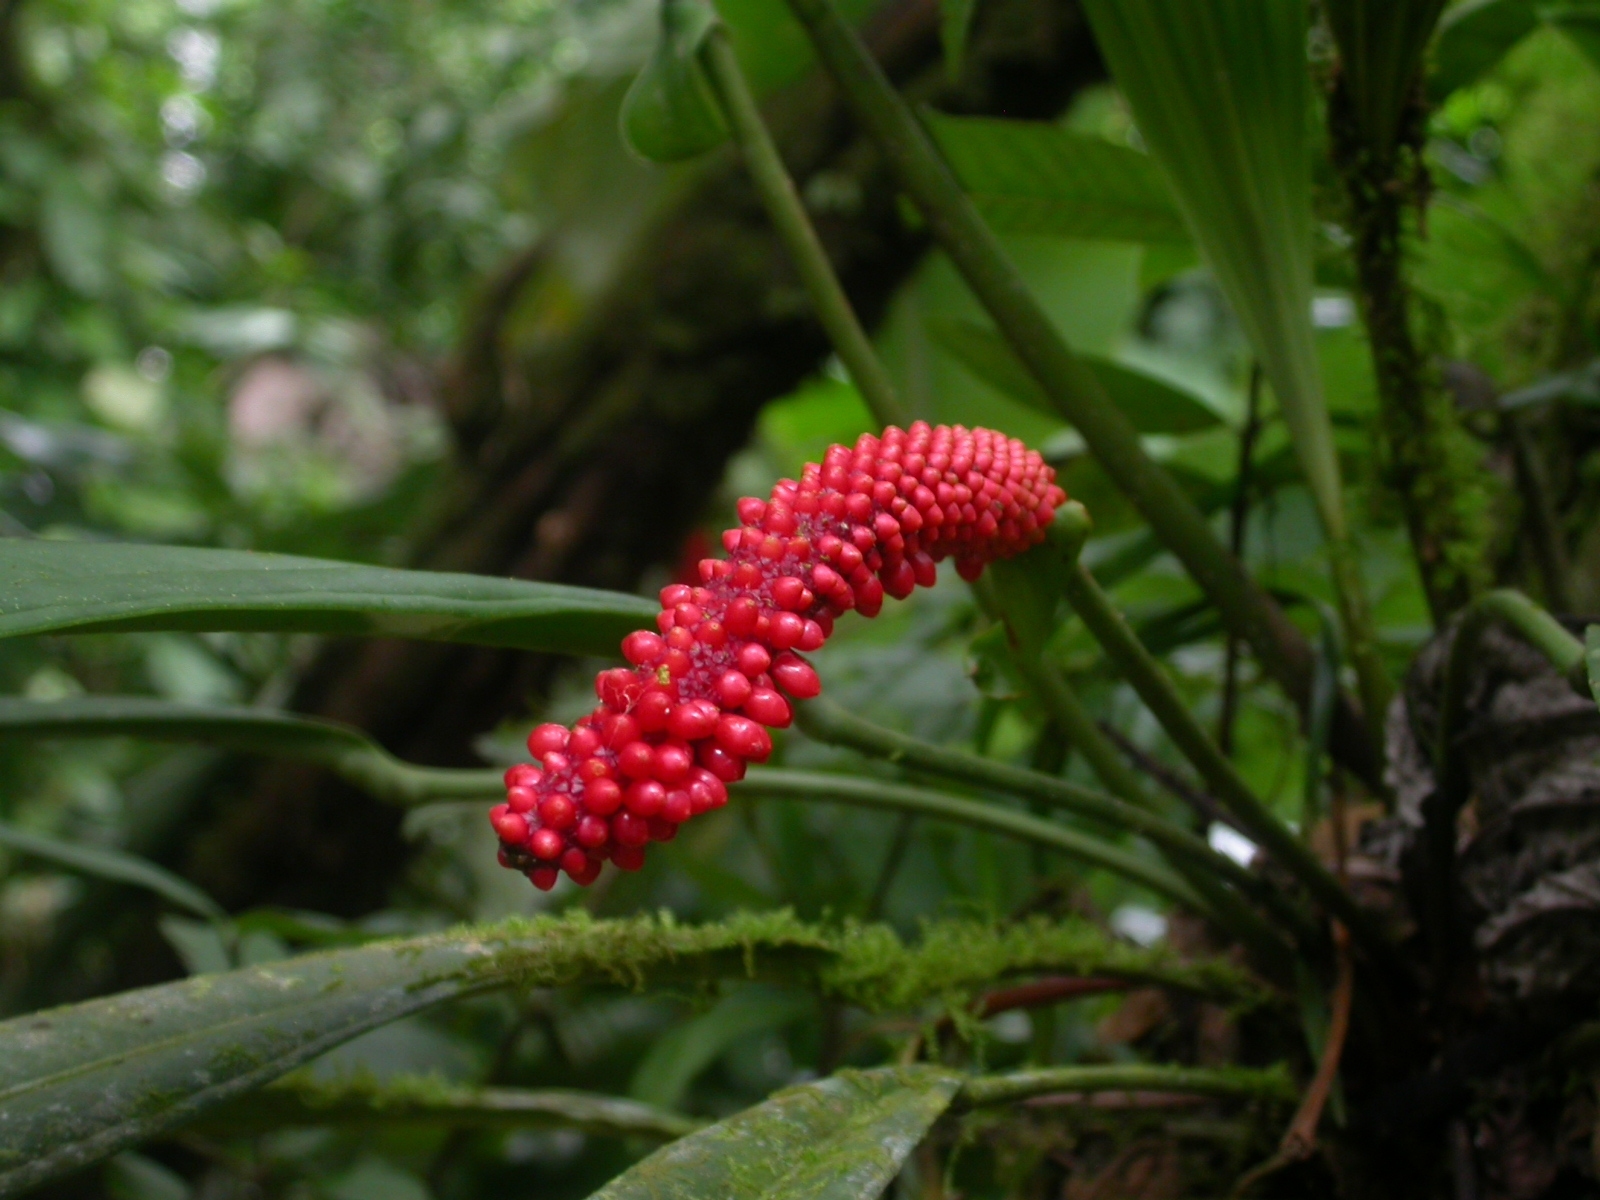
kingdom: Plantae
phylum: Tracheophyta
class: Liliopsida
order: Alismatales
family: Araceae
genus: Anthurium
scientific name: Anthurium bakeri
